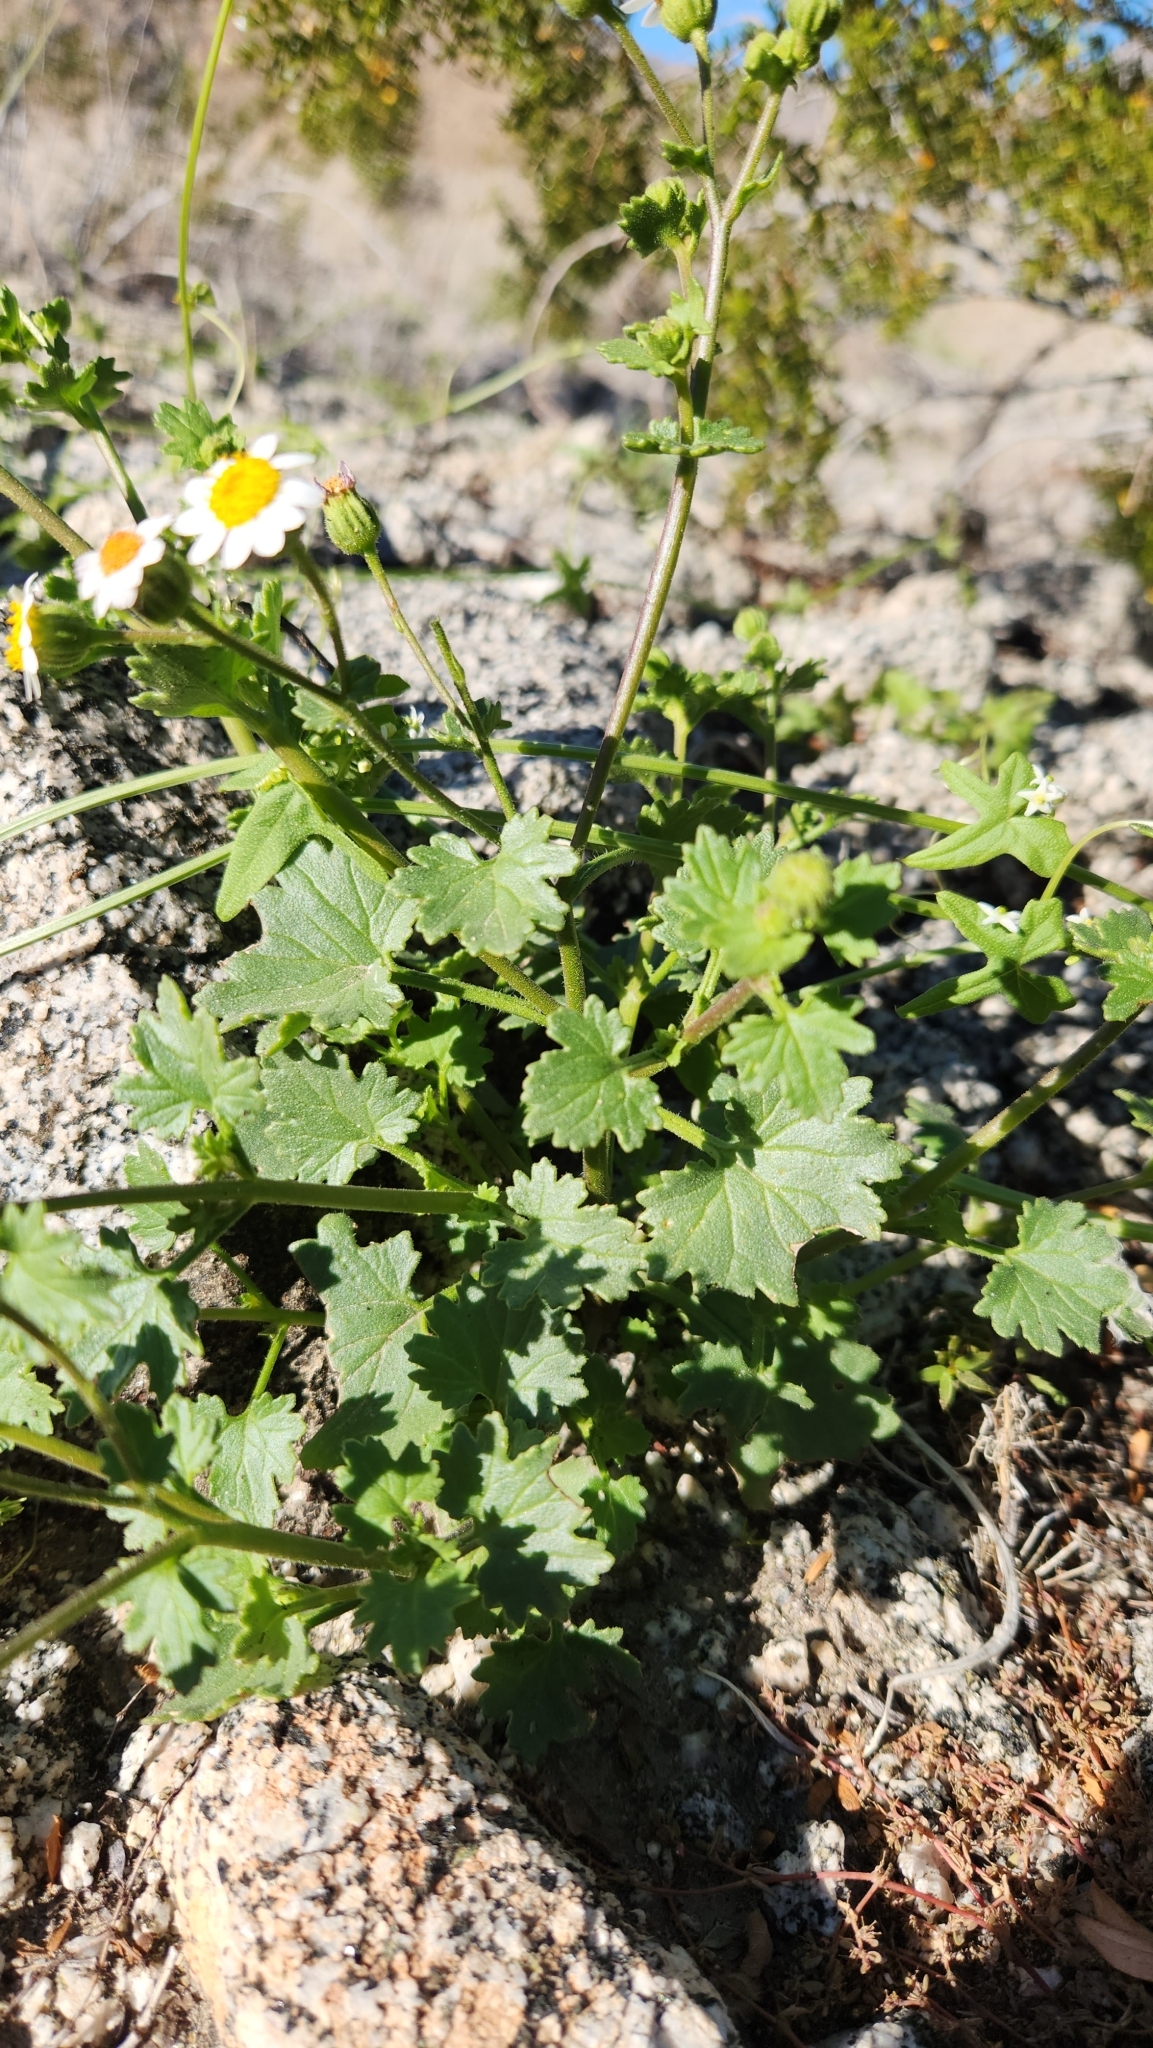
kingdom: Plantae
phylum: Tracheophyta
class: Magnoliopsida
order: Asterales
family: Asteraceae
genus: Laphamia
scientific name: Laphamia emoryi
